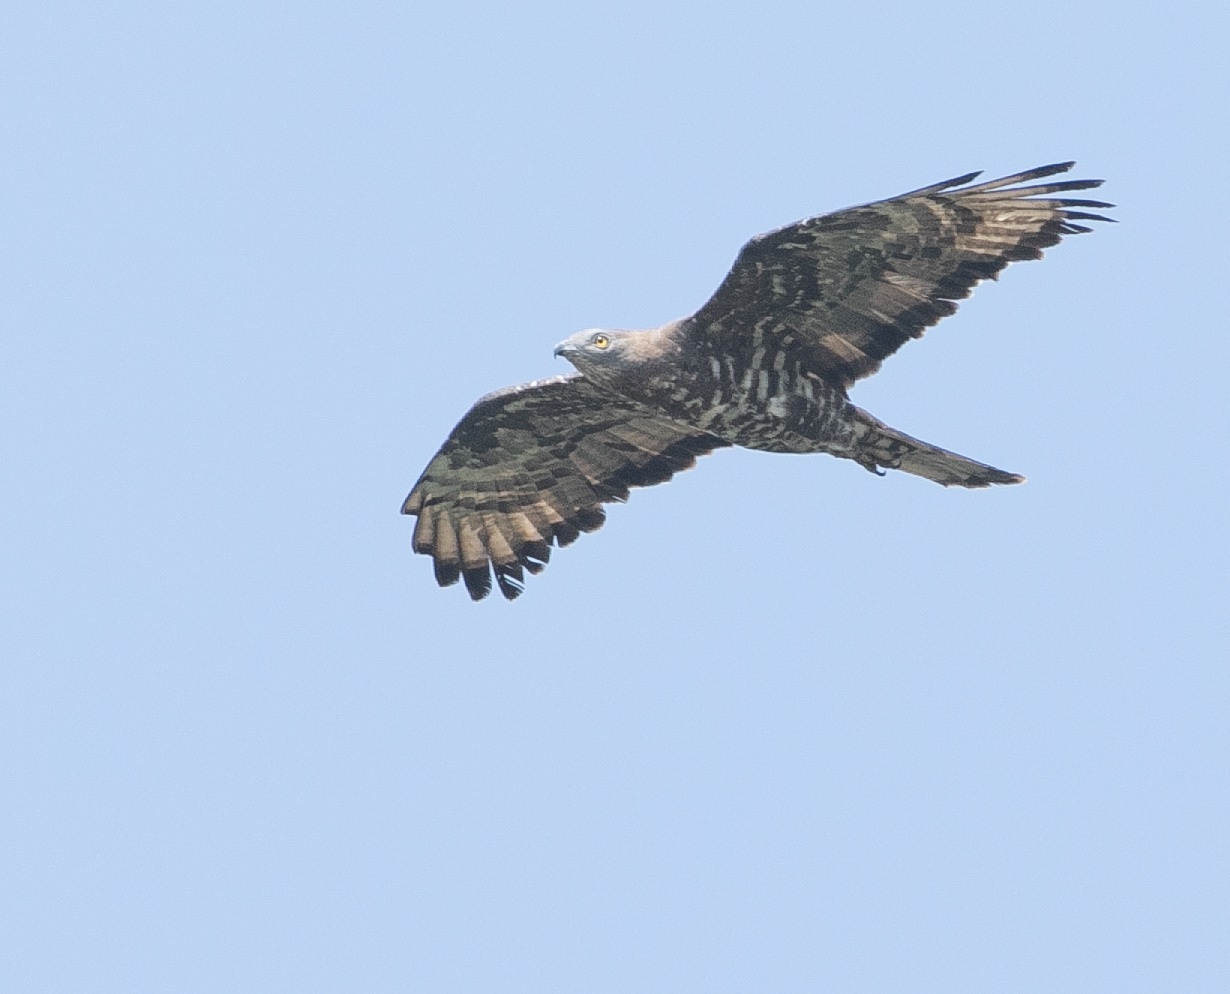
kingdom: Animalia
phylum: Chordata
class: Aves
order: Accipitriformes
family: Accipitridae
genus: Pernis
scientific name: Pernis apivorus
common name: European honey buzzard
